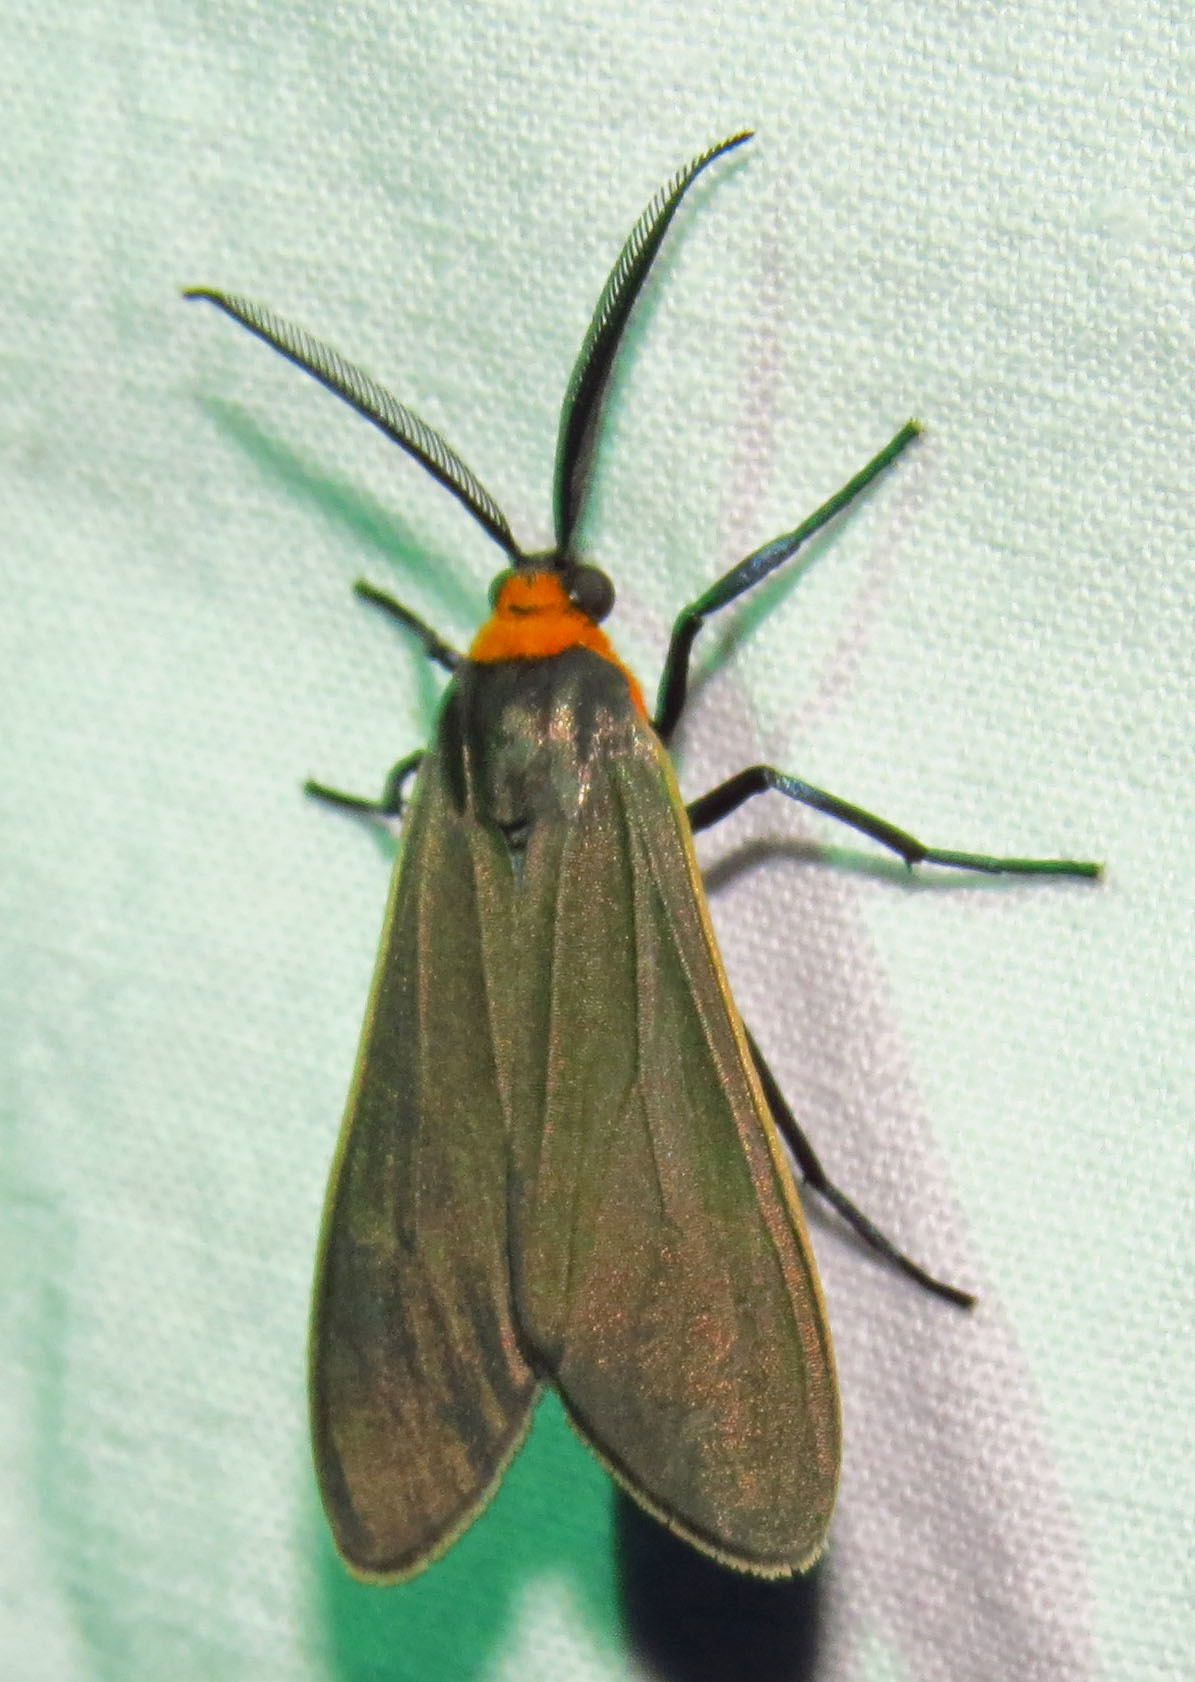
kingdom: Animalia
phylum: Arthropoda
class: Insecta
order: Lepidoptera
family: Erebidae
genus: Cisseps
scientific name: Cisseps fulvicollis
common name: Yellow-collared scape moth
